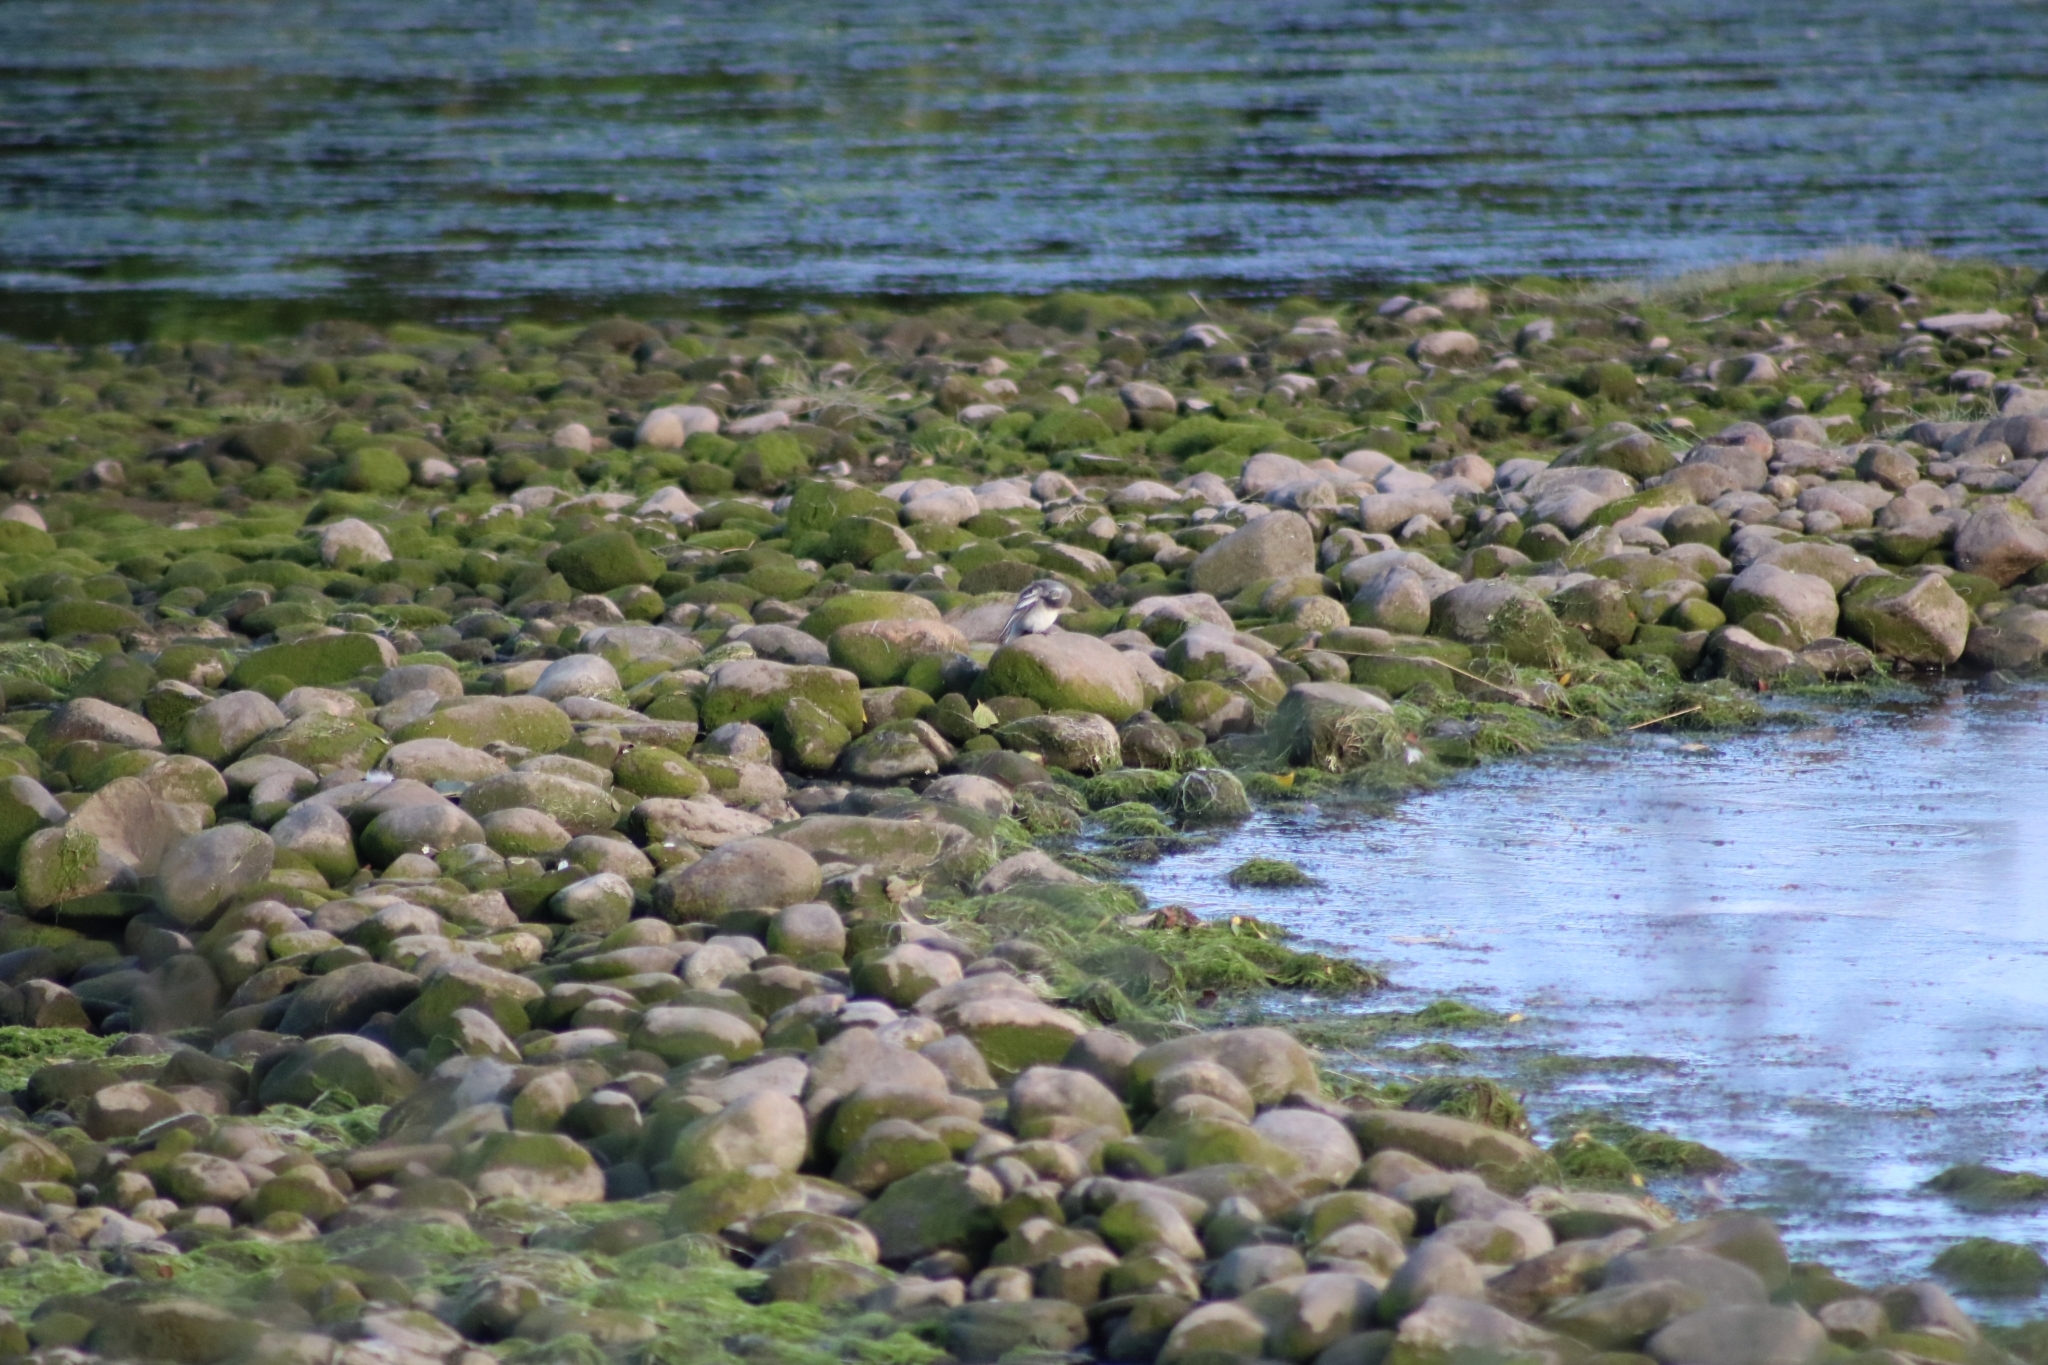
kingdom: Animalia
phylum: Chordata
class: Aves
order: Passeriformes
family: Motacillidae
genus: Motacilla
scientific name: Motacilla alba
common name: White wagtail
